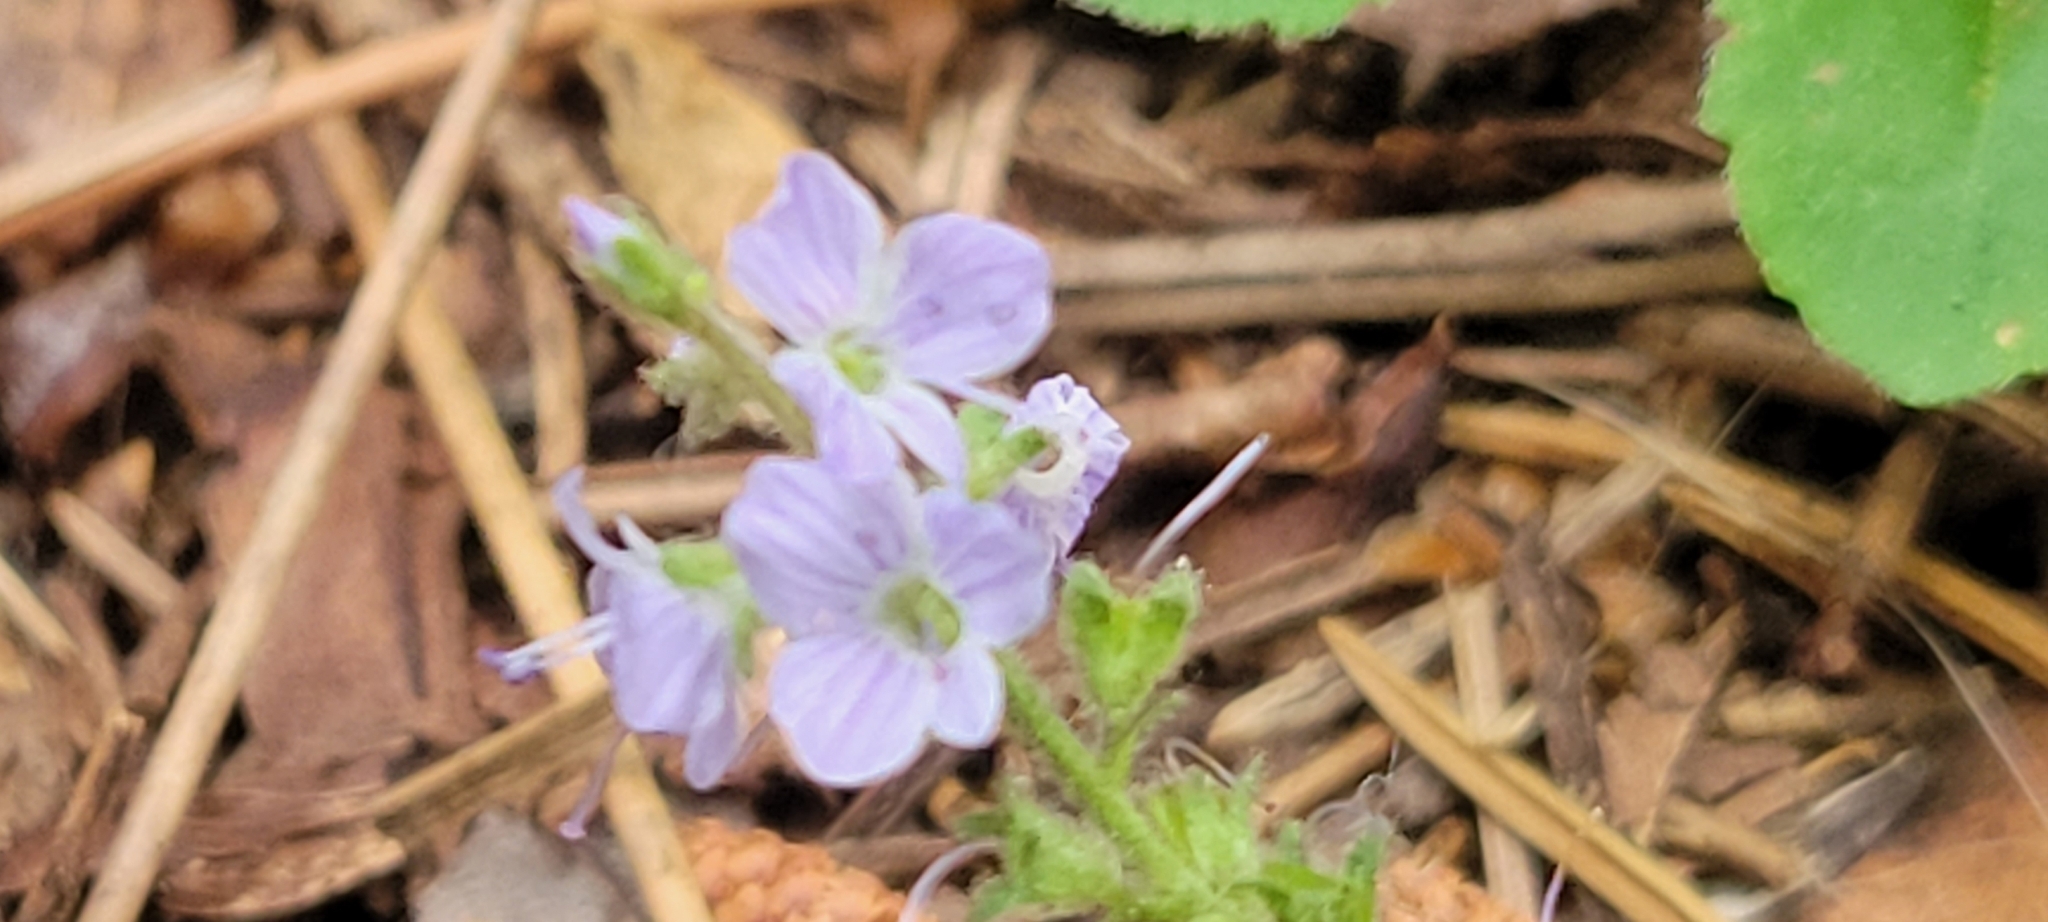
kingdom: Plantae
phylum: Tracheophyta
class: Magnoliopsida
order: Lamiales
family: Plantaginaceae
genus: Veronica
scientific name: Veronica officinalis
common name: Common speedwell
